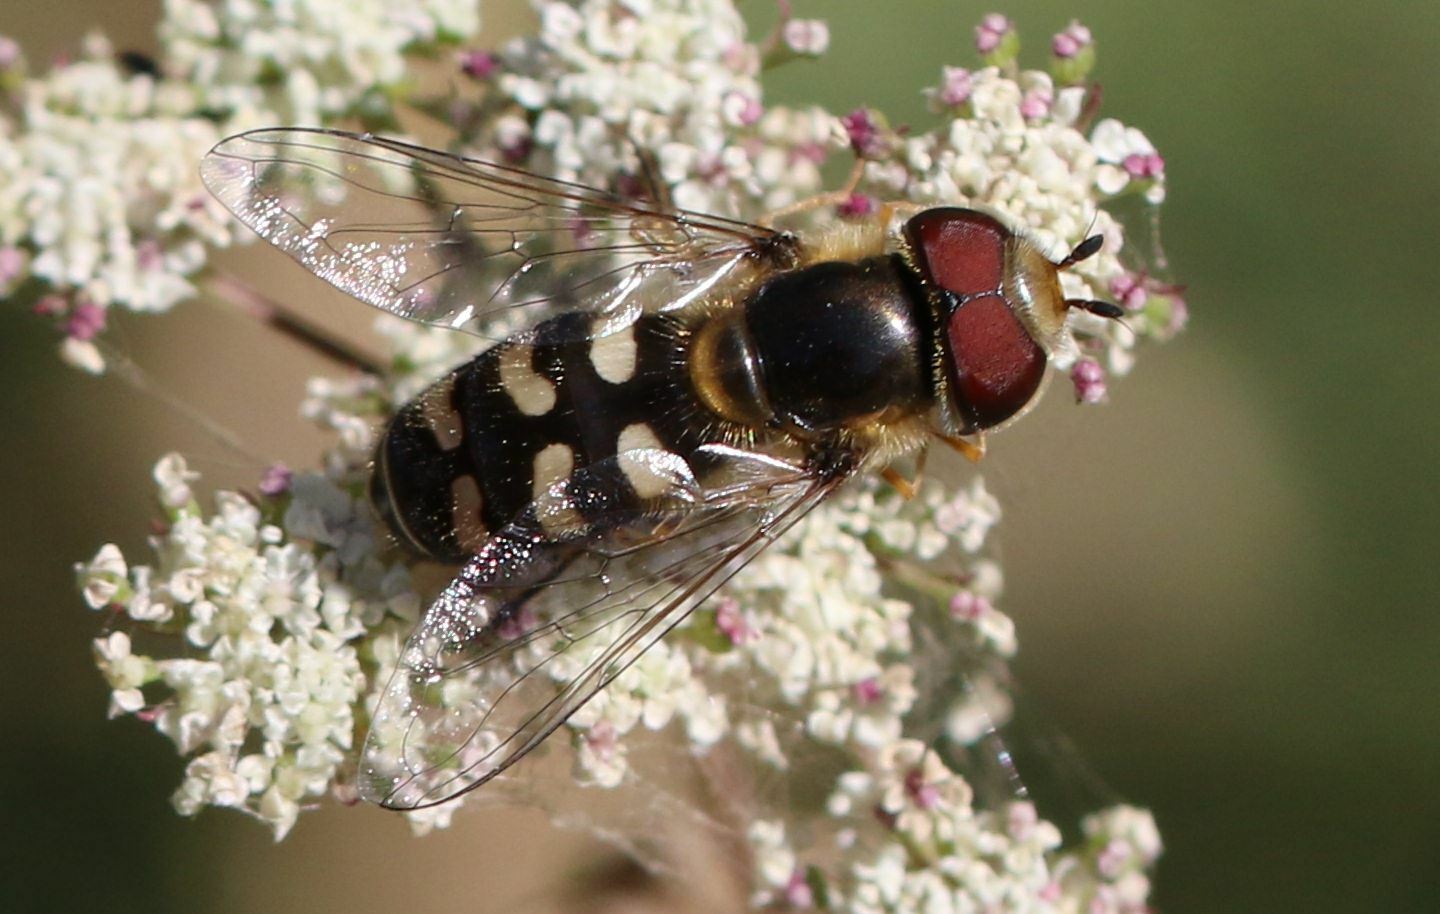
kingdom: Animalia
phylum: Arthropoda
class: Insecta
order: Diptera
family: Syrphidae
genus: Scaeva
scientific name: Scaeva pyrastri
